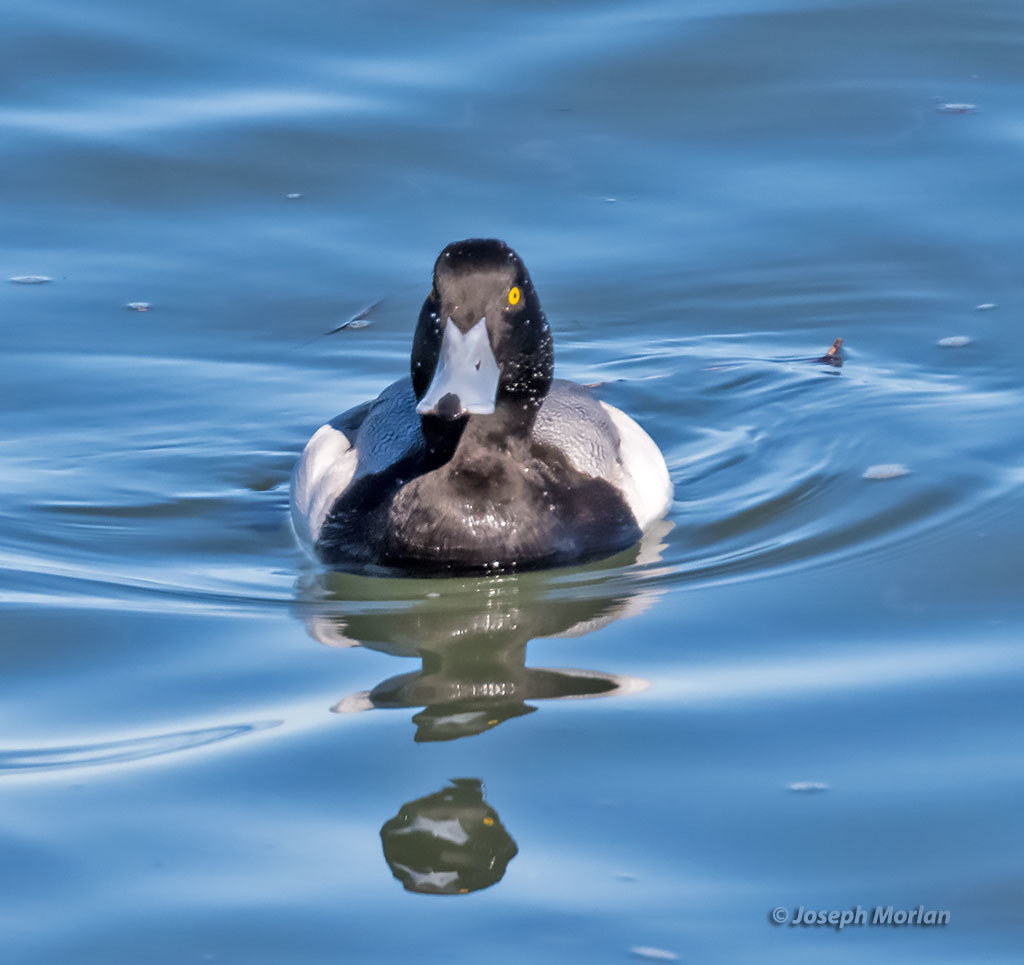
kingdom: Animalia
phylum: Chordata
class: Aves
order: Anseriformes
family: Anatidae
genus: Aythya
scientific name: Aythya marila
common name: Greater scaup
